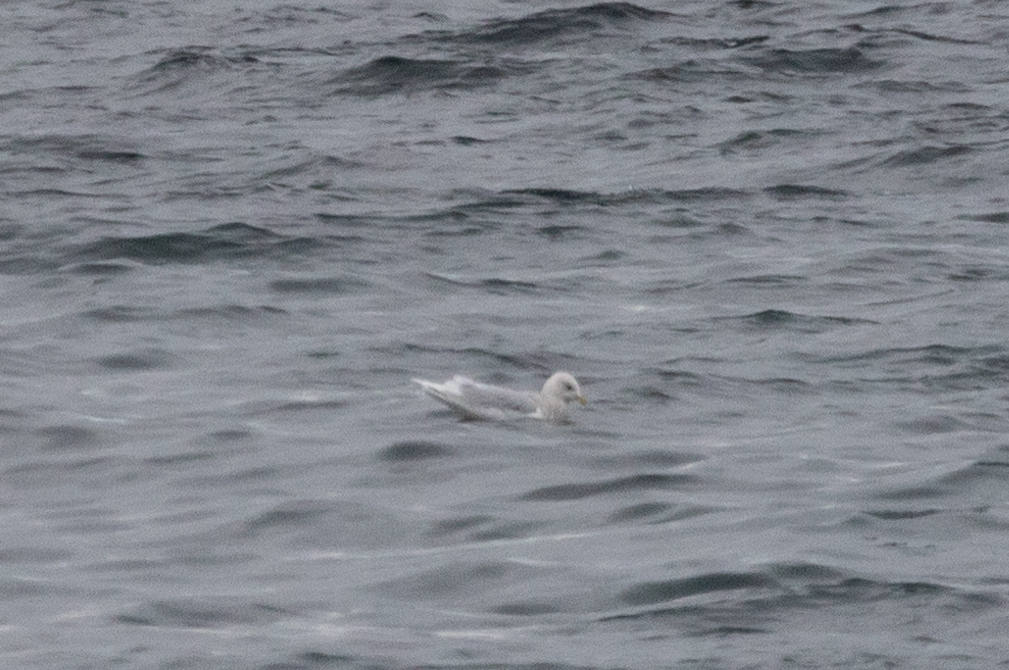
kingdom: Animalia
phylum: Chordata
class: Aves
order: Charadriiformes
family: Laridae
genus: Larus
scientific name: Larus glaucoides
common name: Iceland gull
